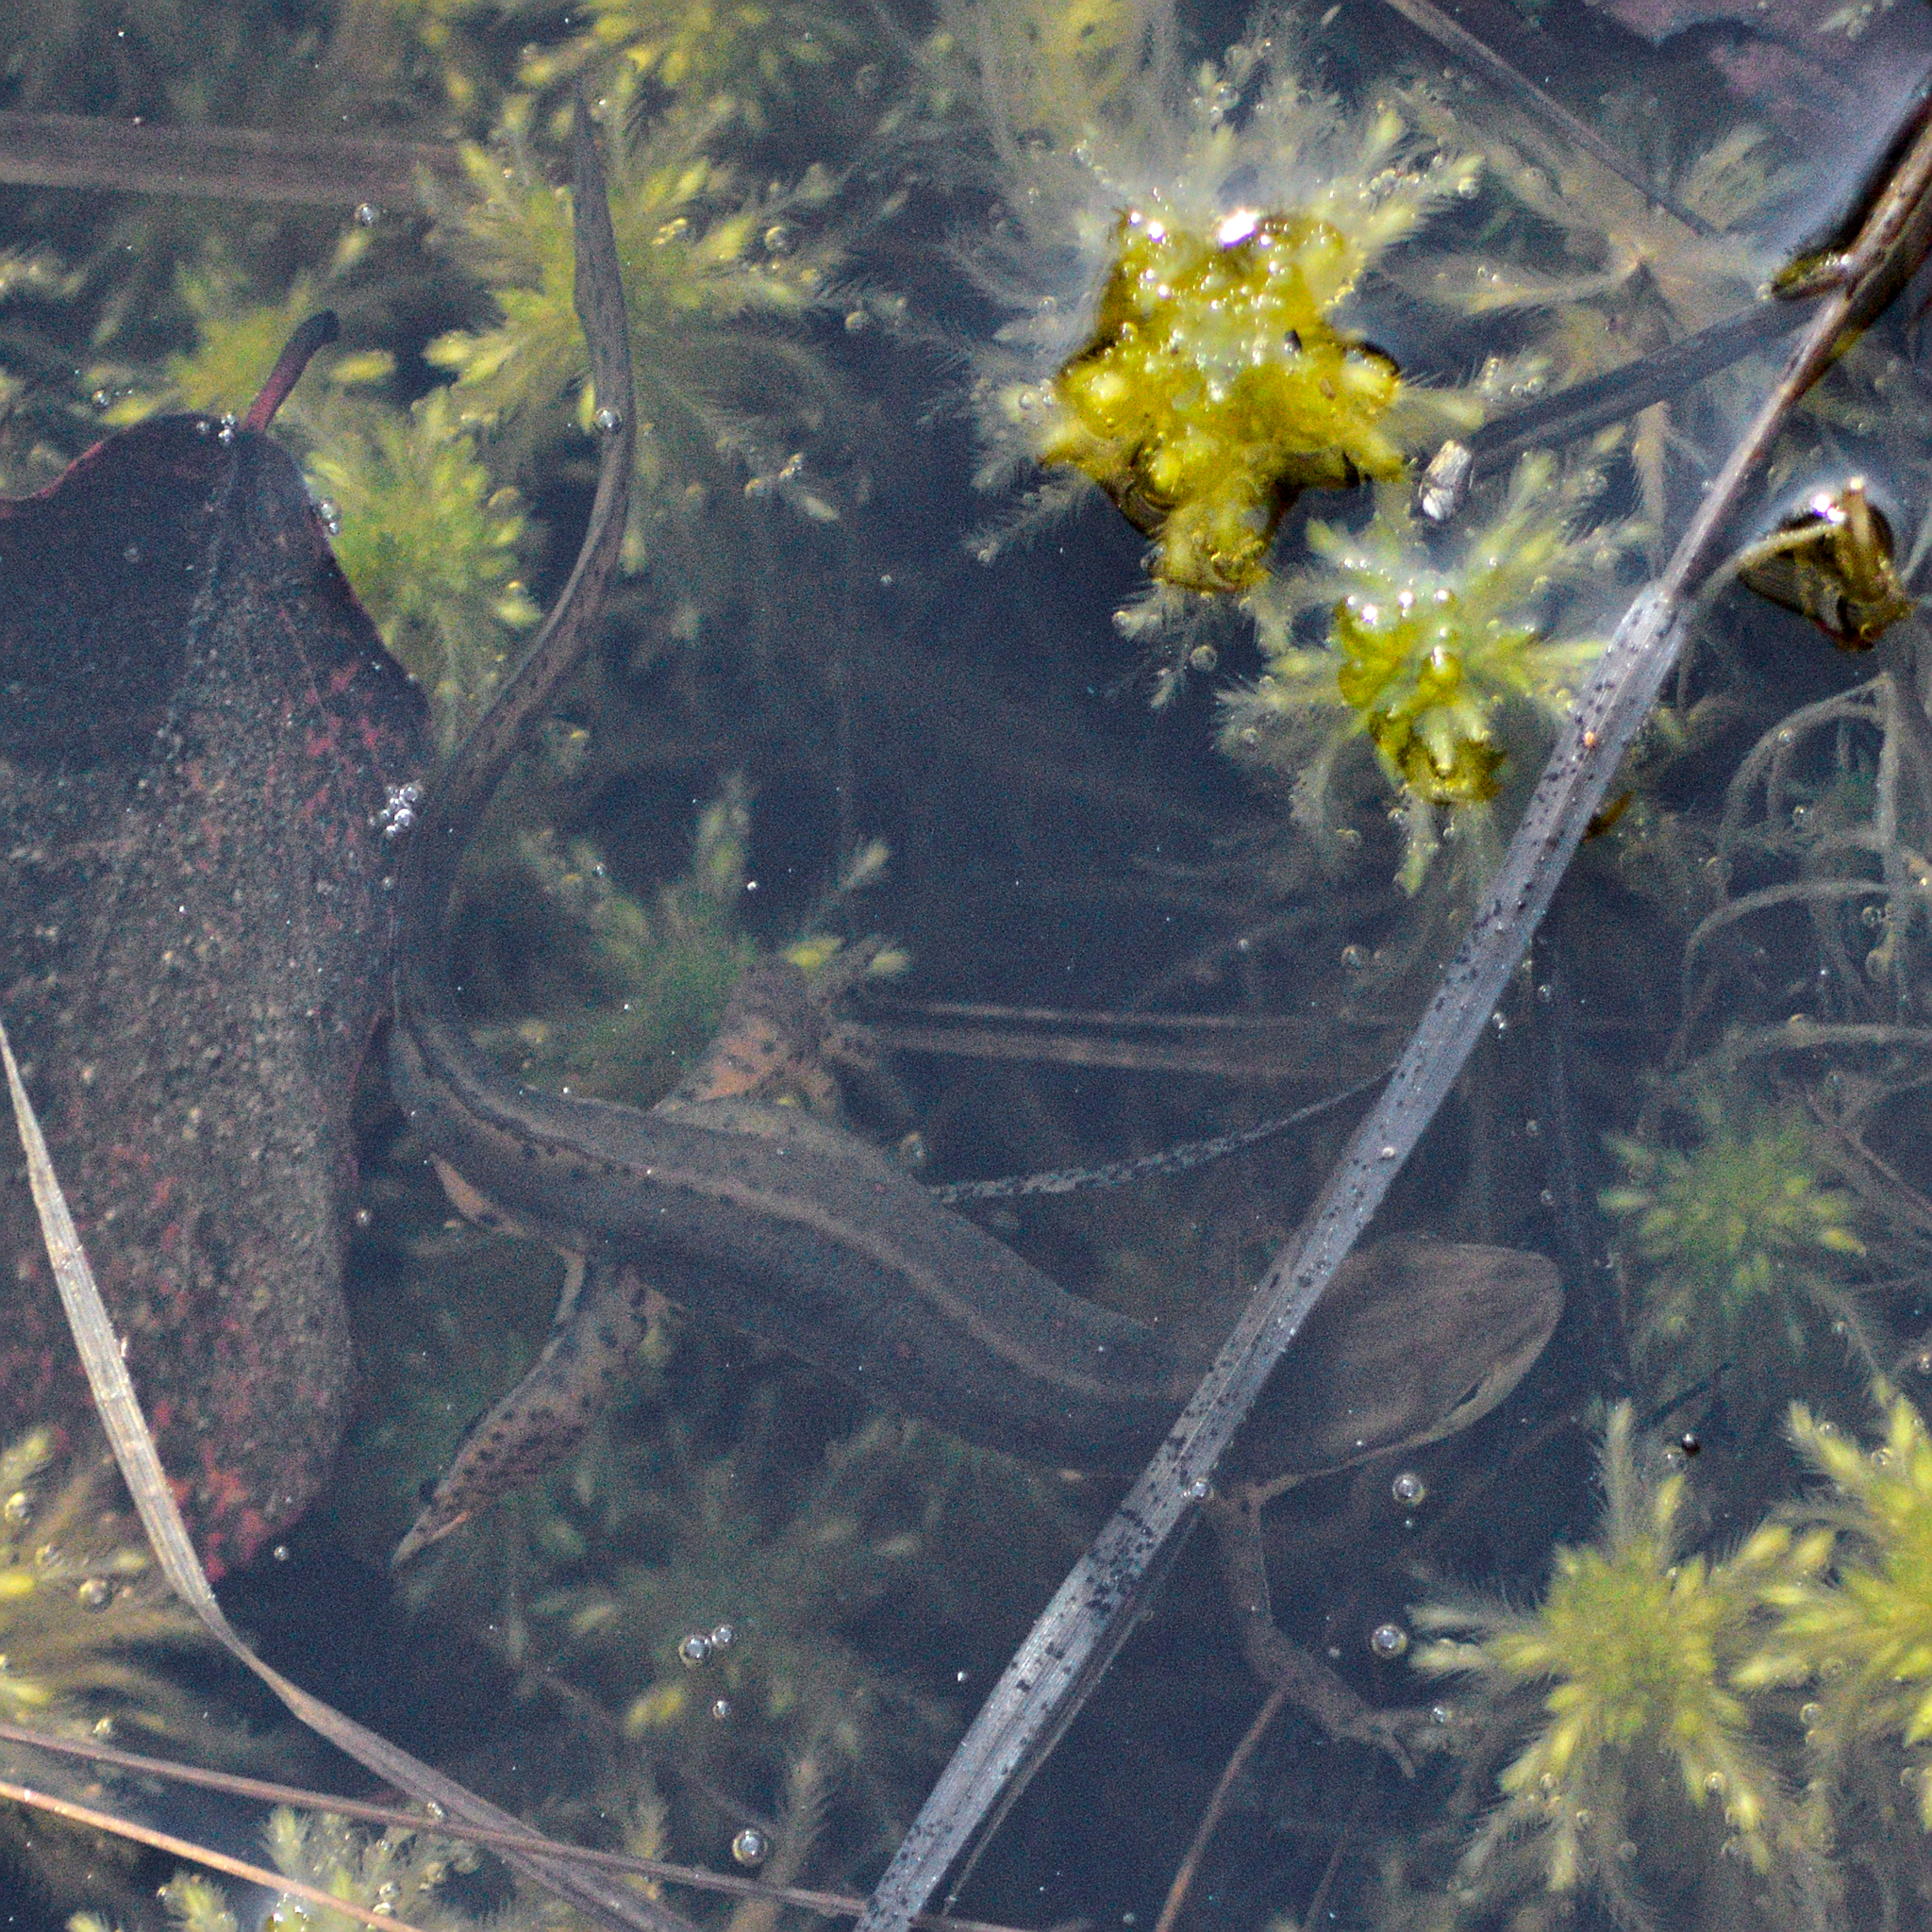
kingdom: Animalia
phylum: Chordata
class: Amphibia
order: Caudata
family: Salamandridae
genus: Notophthalmus
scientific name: Notophthalmus viridescens
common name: Eastern newt
